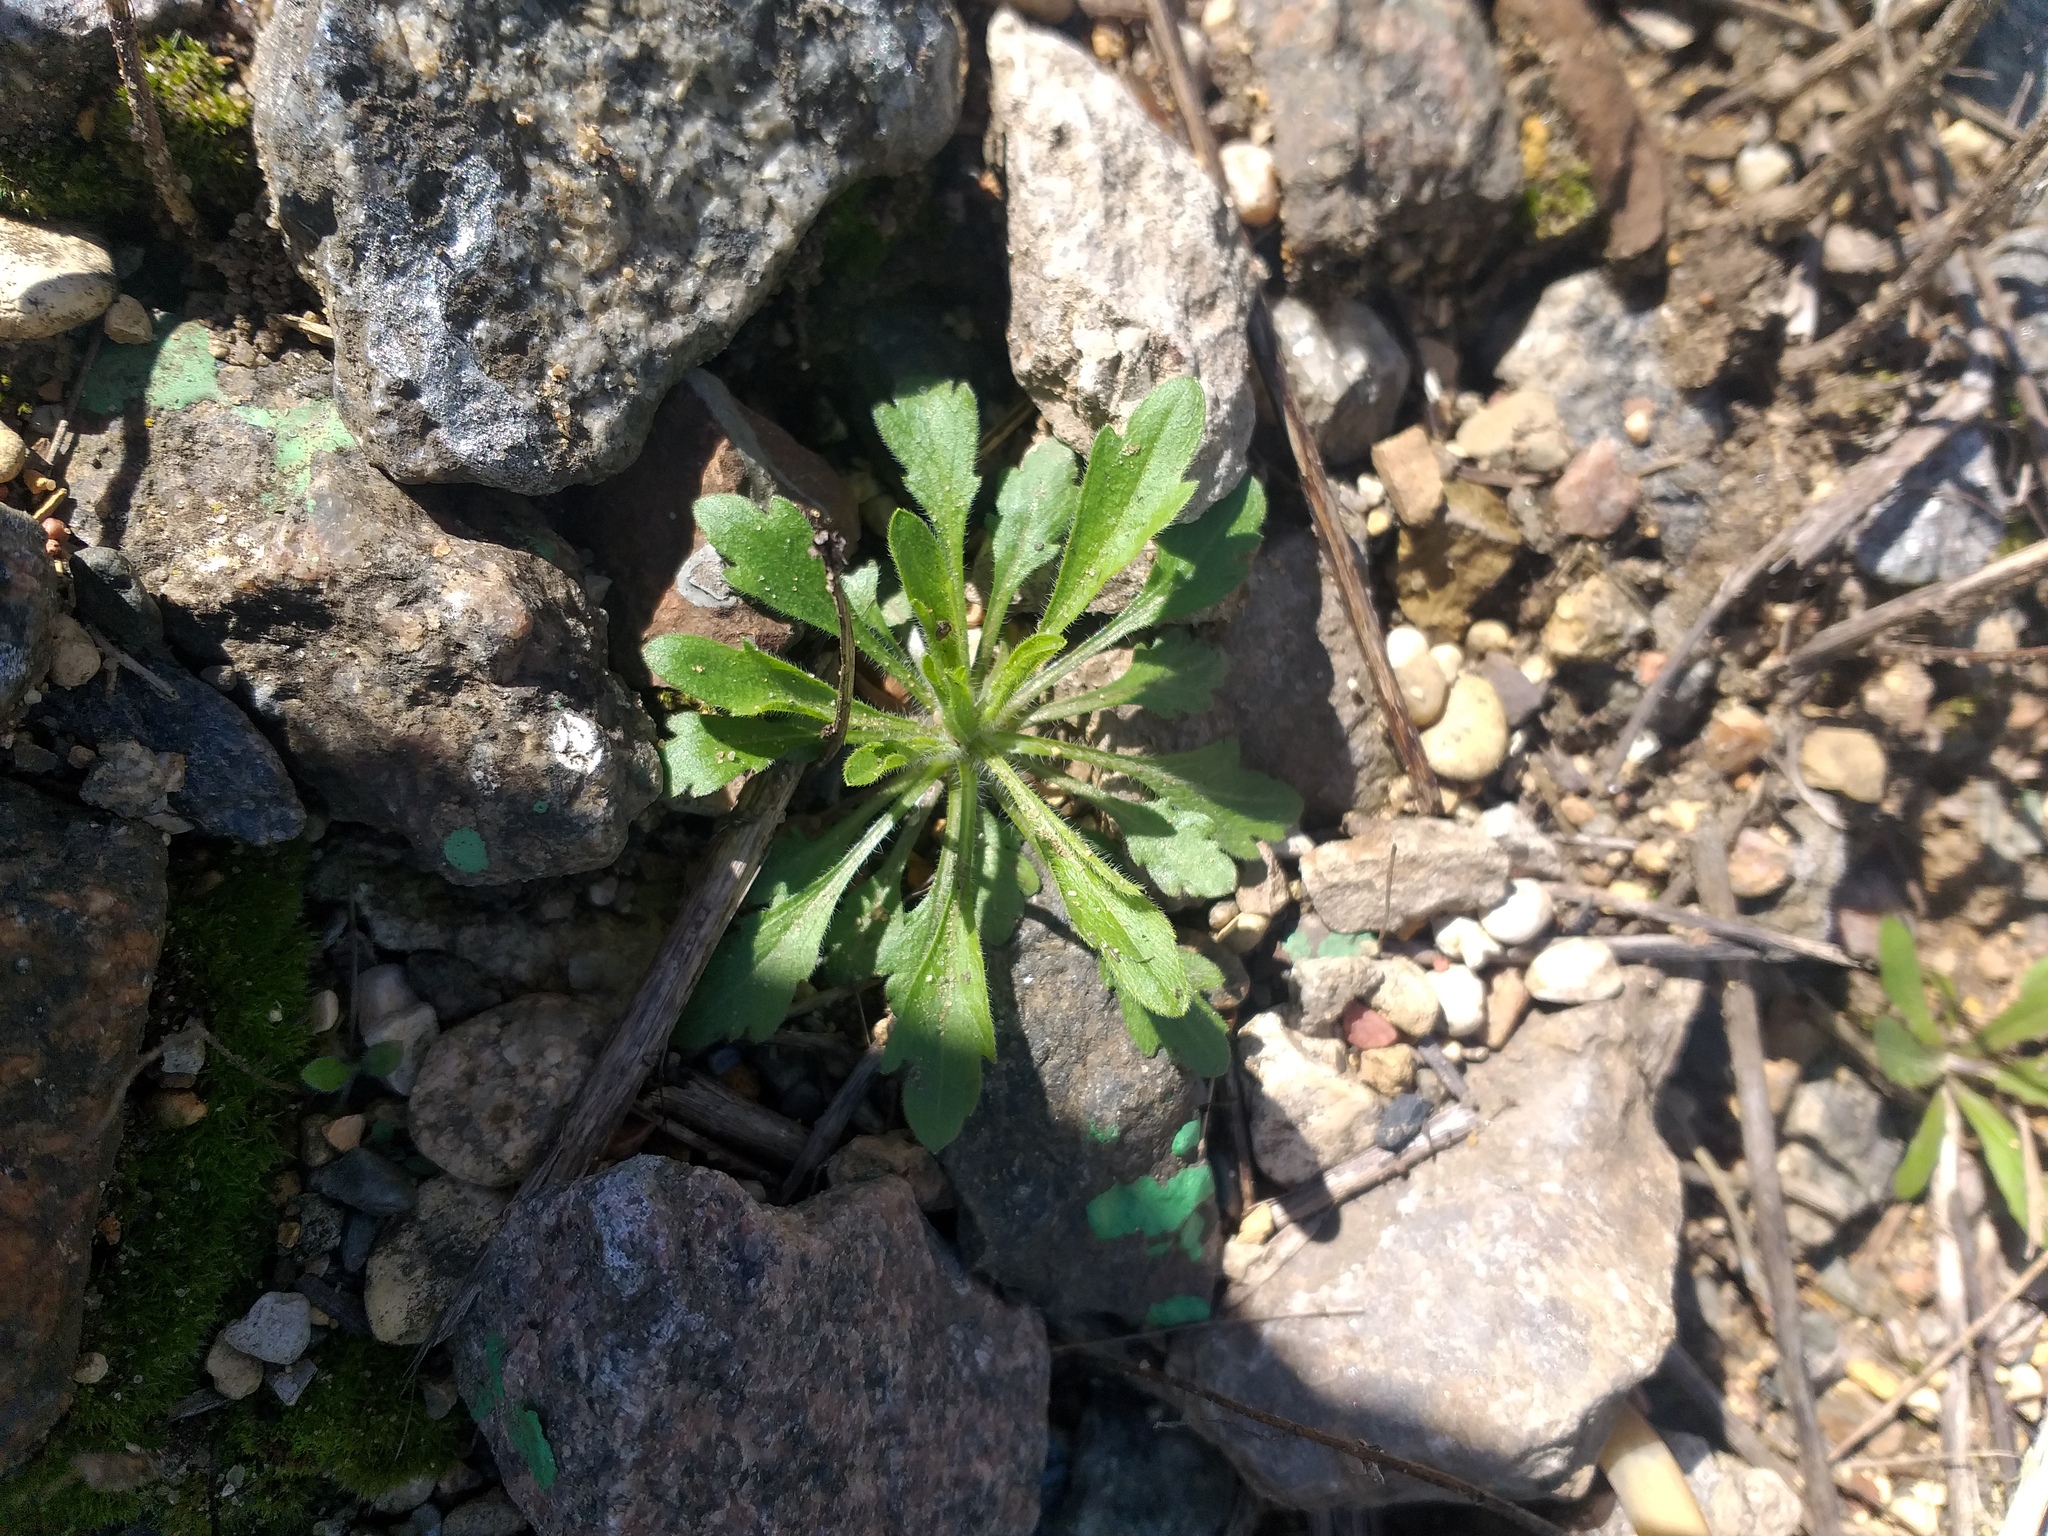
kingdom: Plantae
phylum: Tracheophyta
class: Magnoliopsida
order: Asterales
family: Asteraceae
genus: Erigeron
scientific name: Erigeron canadensis
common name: Canadian fleabane
